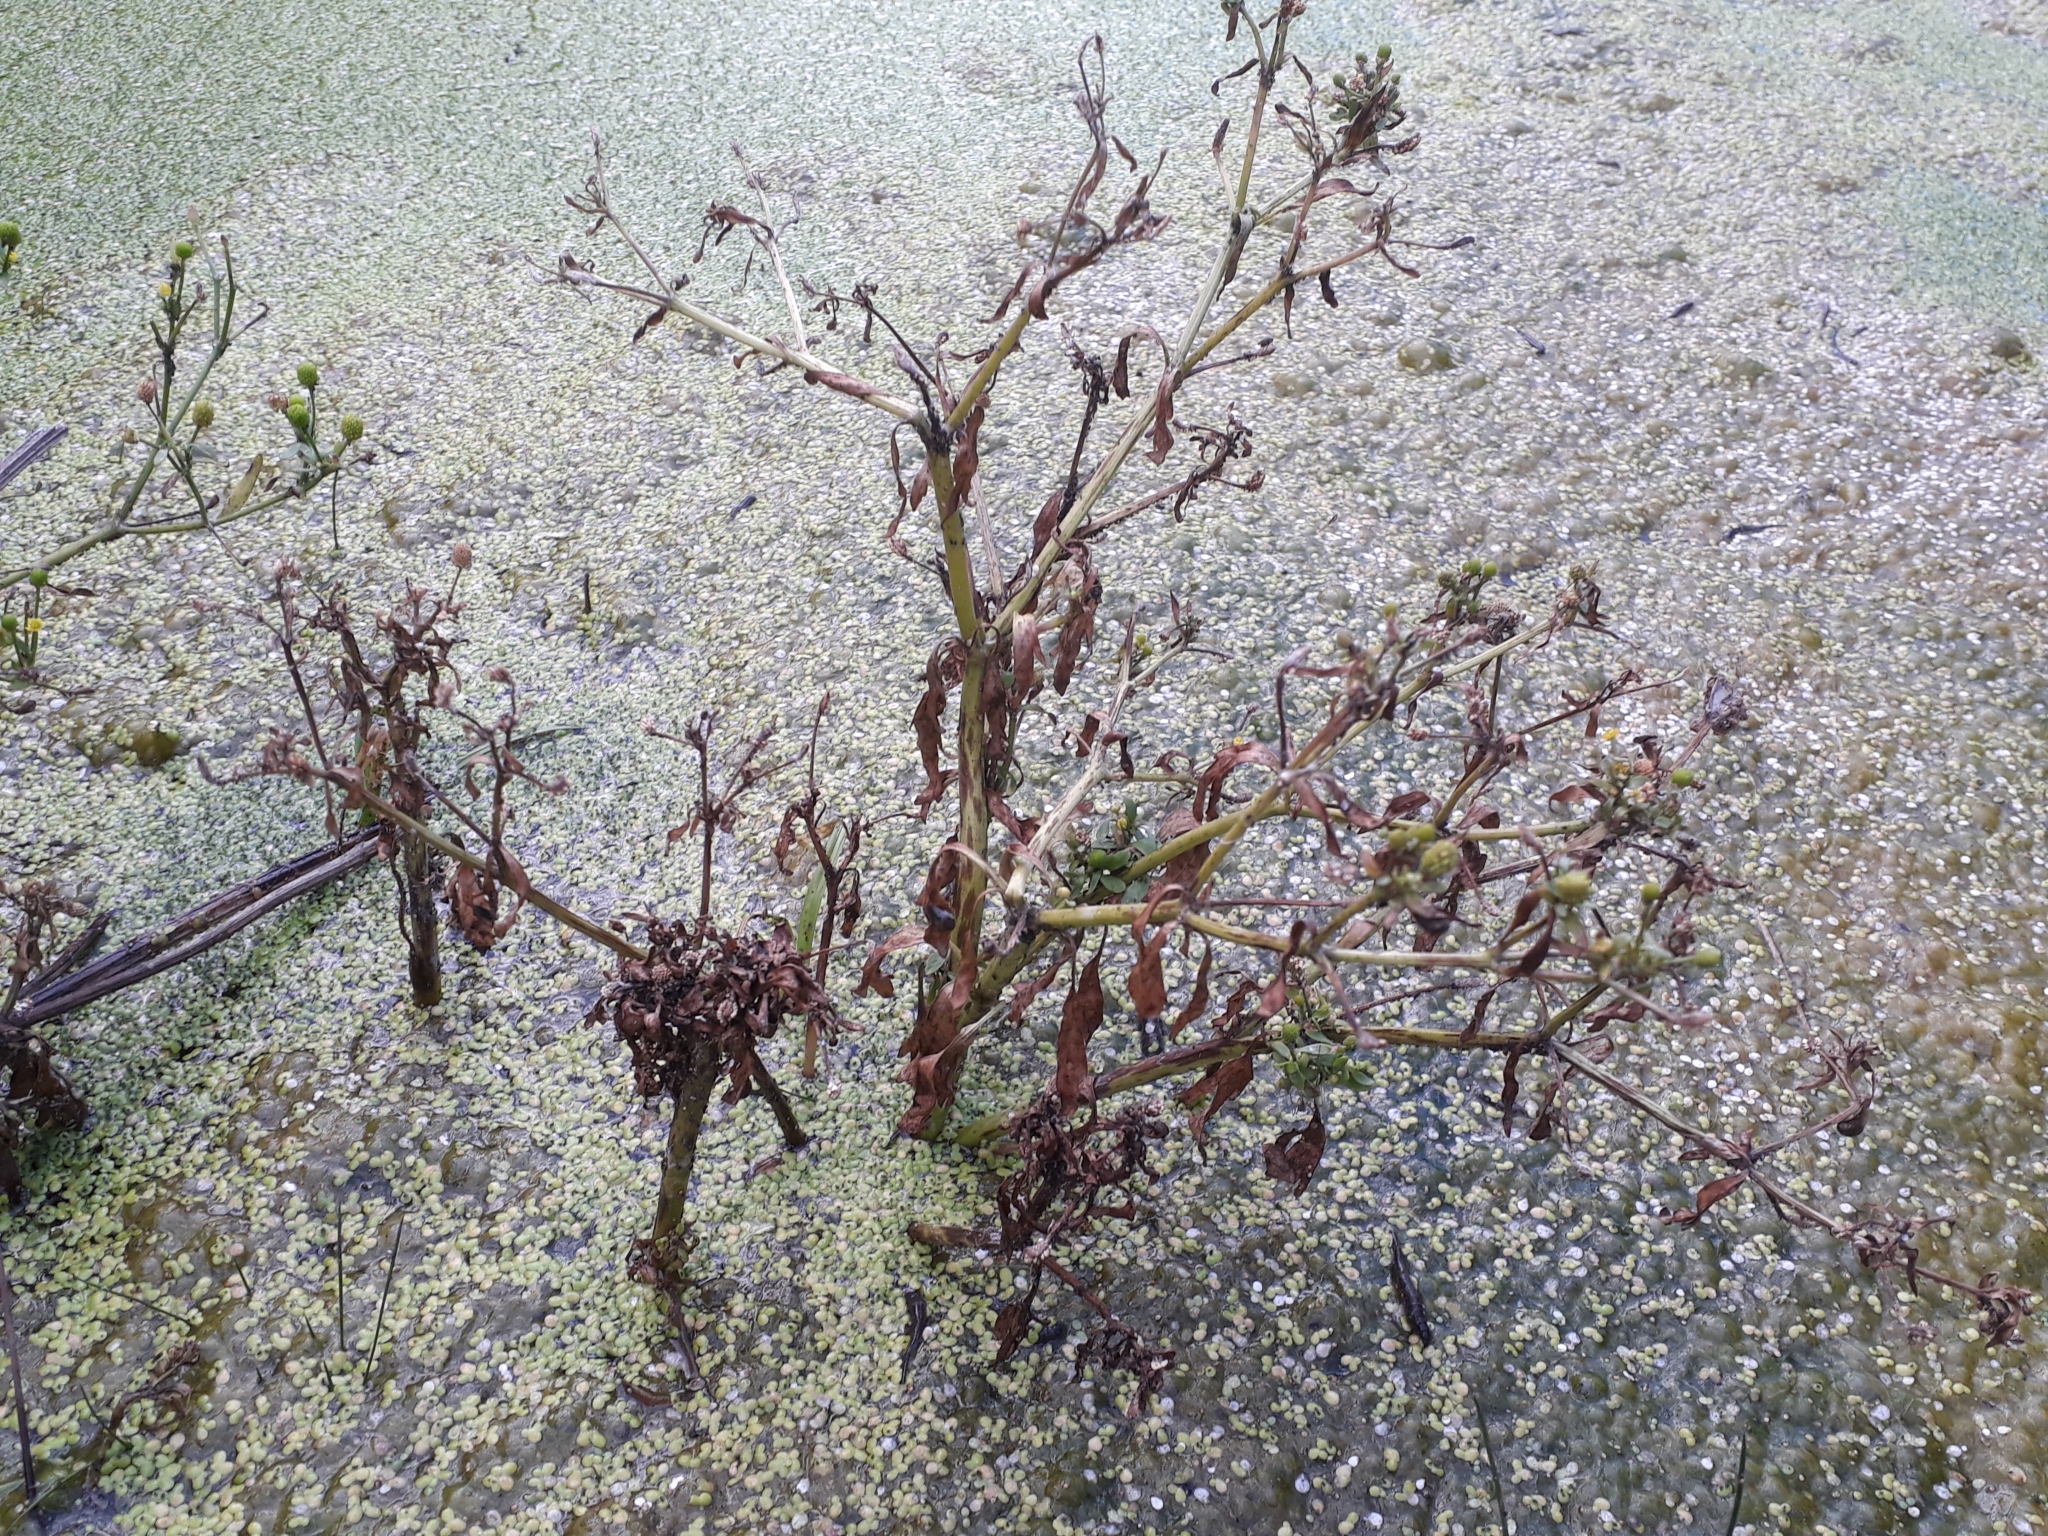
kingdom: Plantae
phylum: Tracheophyta
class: Magnoliopsida
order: Ranunculales
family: Ranunculaceae
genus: Ranunculus
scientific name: Ranunculus sceleratus
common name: Celery-leaved buttercup
